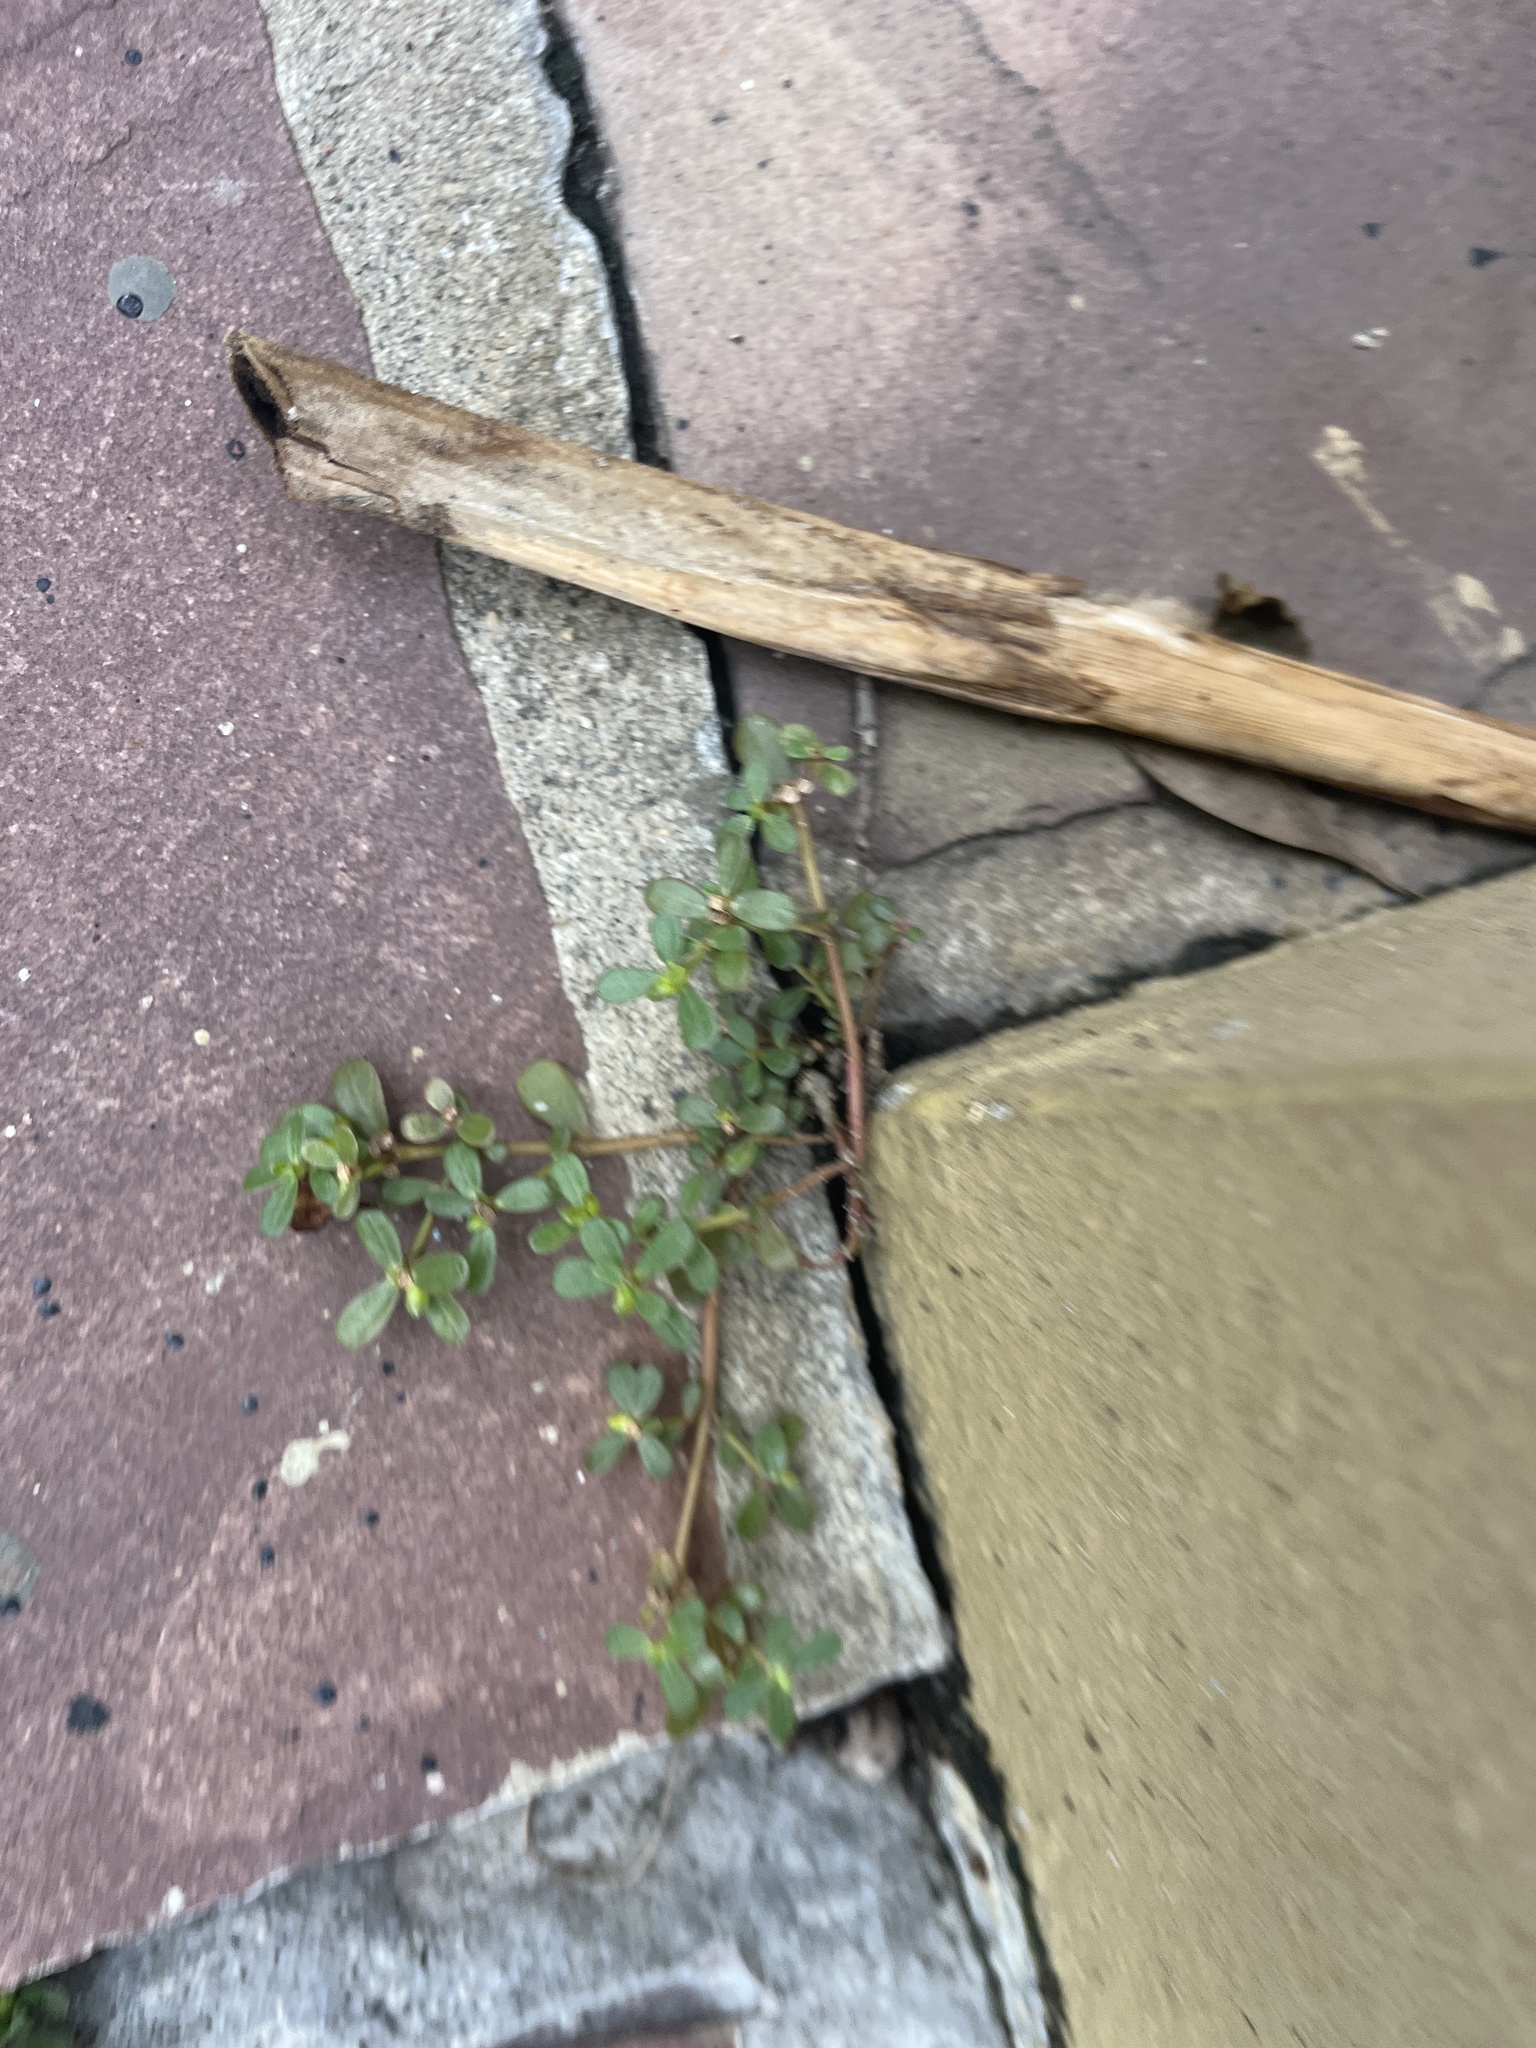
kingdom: Plantae
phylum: Tracheophyta
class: Magnoliopsida
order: Caryophyllales
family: Portulacaceae
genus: Portulaca
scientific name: Portulaca oleracea
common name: Common purslane
